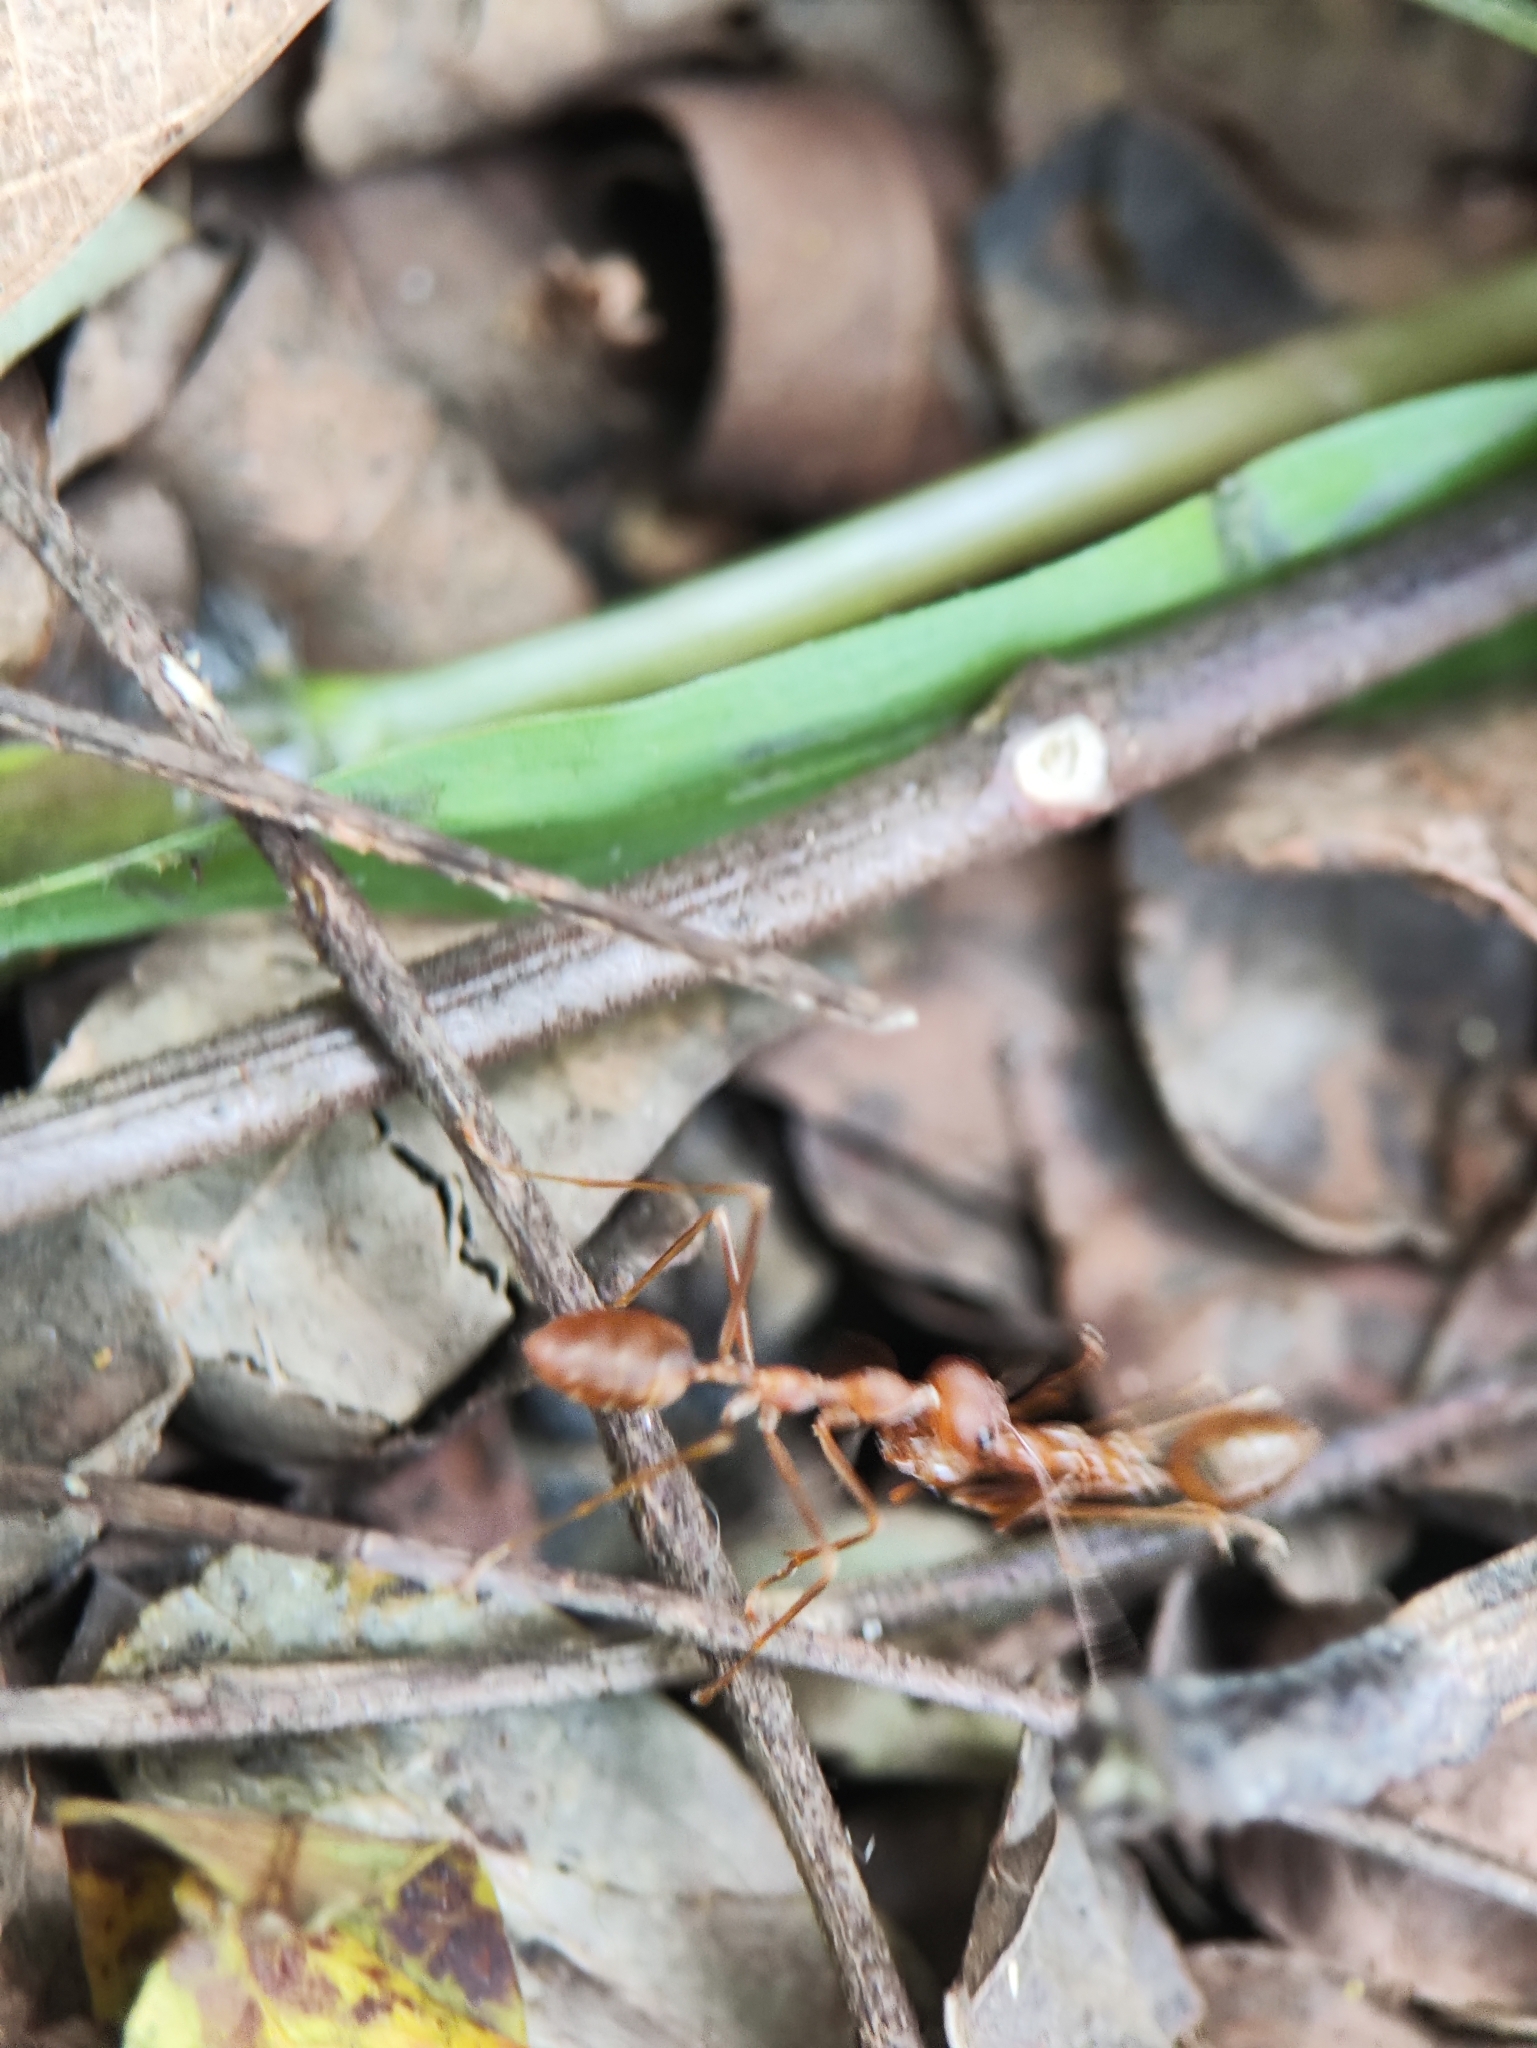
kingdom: Animalia
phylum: Arthropoda
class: Insecta
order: Hymenoptera
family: Formicidae
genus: Oecophylla
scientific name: Oecophylla smaragdina
